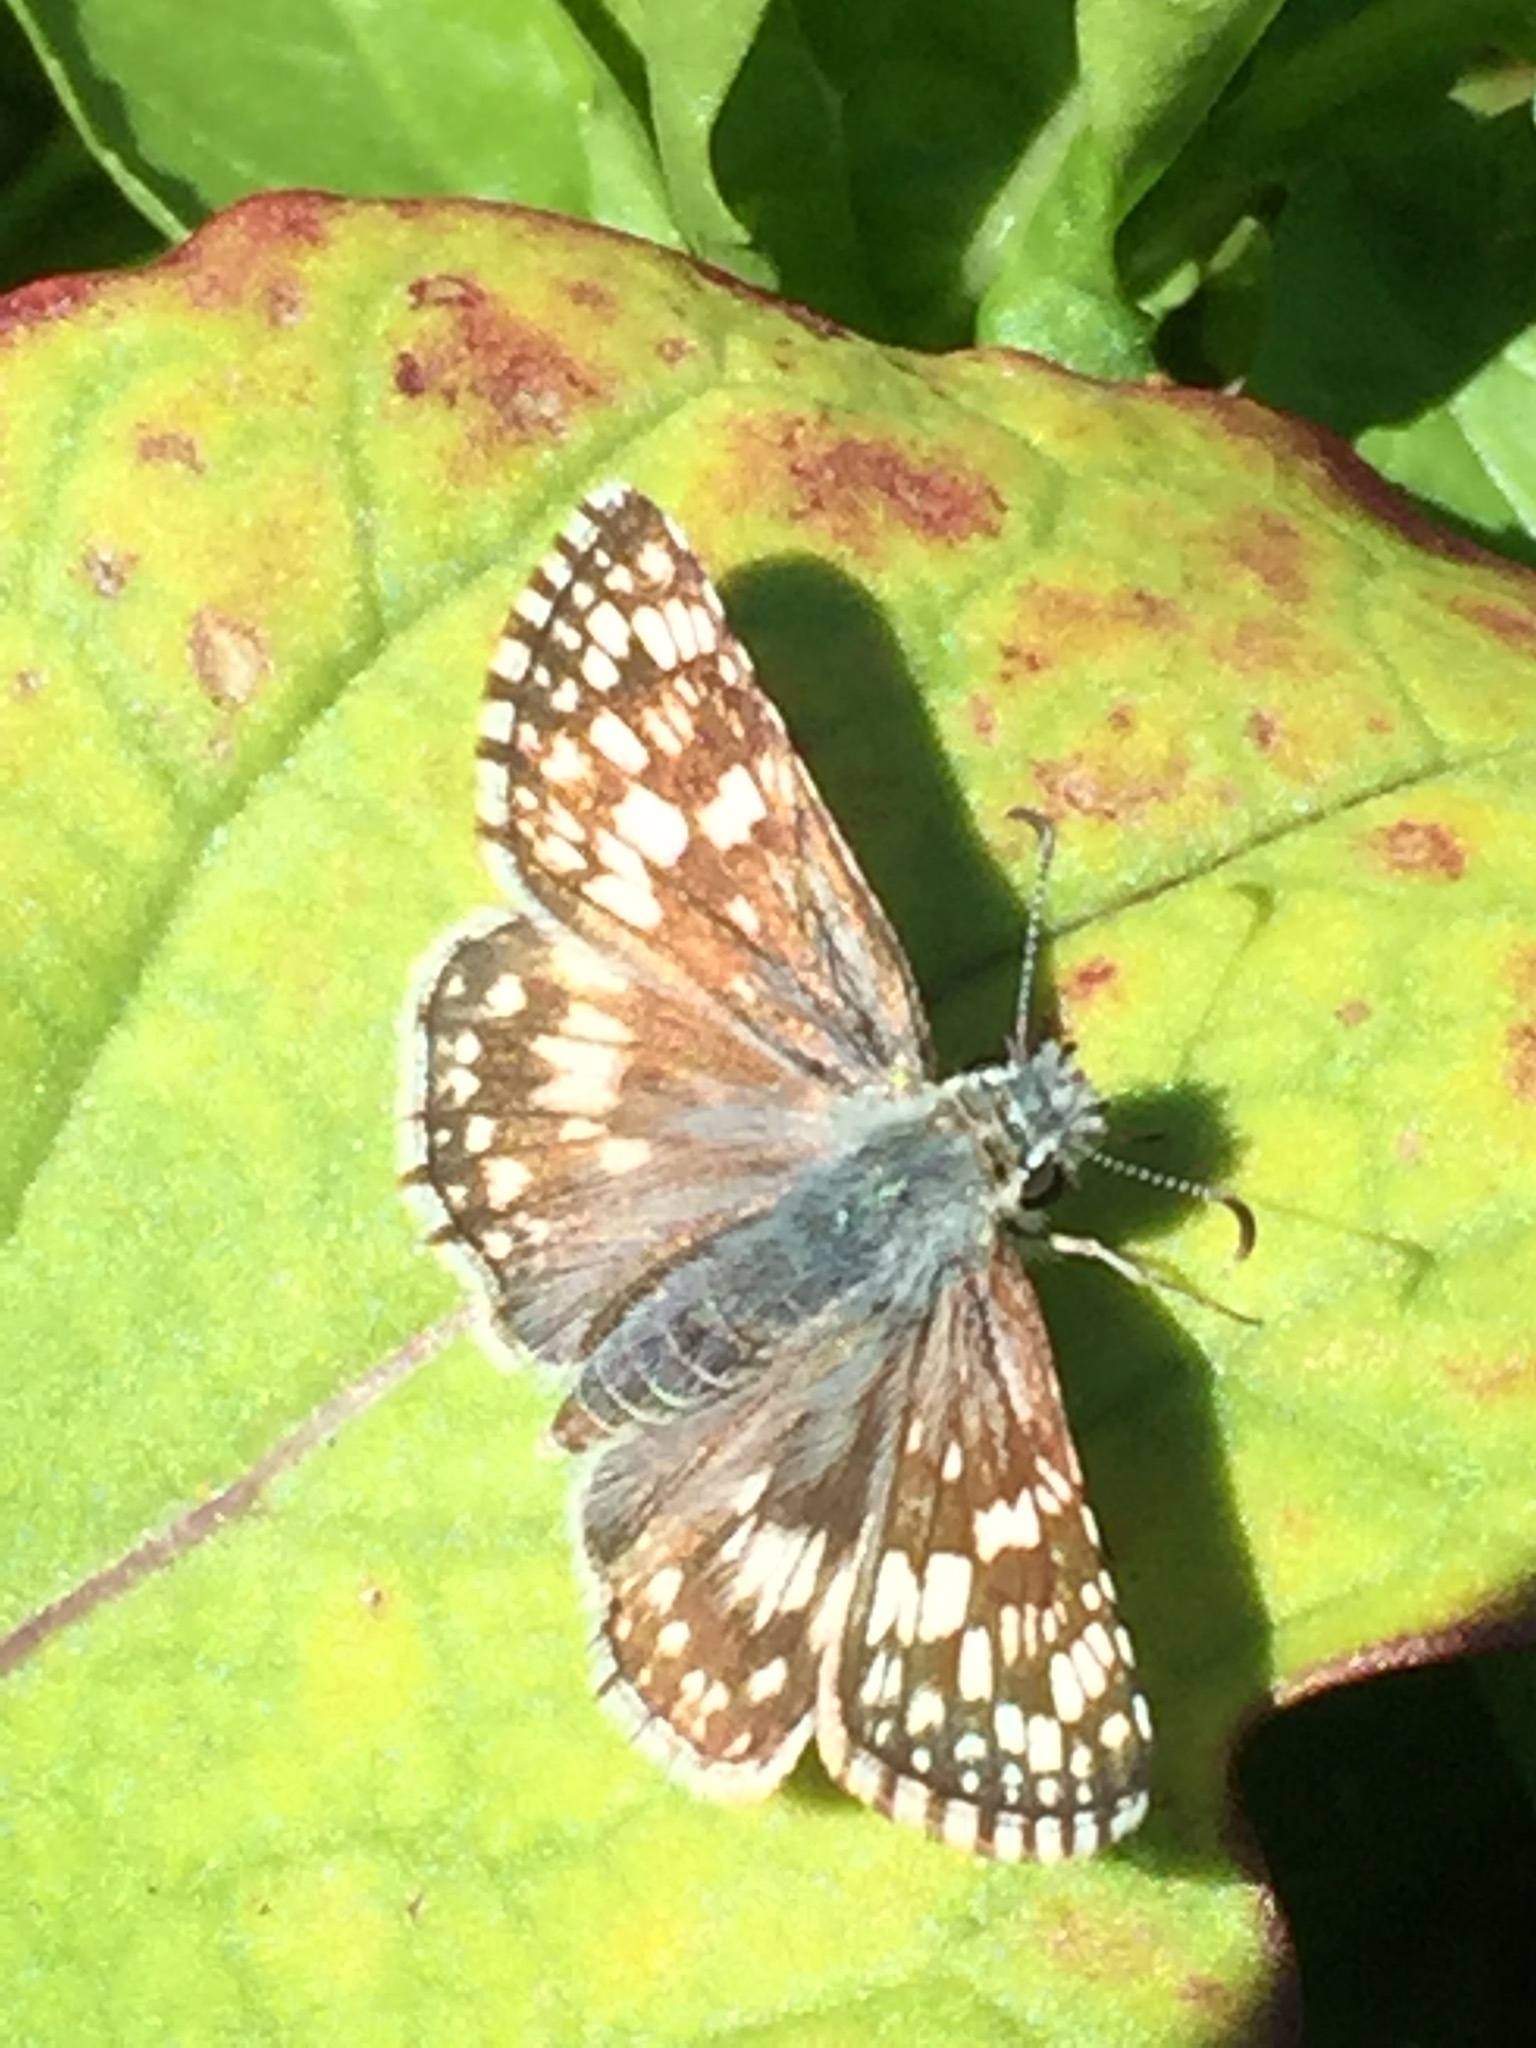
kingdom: Animalia
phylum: Arthropoda
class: Insecta
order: Lepidoptera
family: Hesperiidae
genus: Burnsius
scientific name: Burnsius communis
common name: Common checkered-skipper
